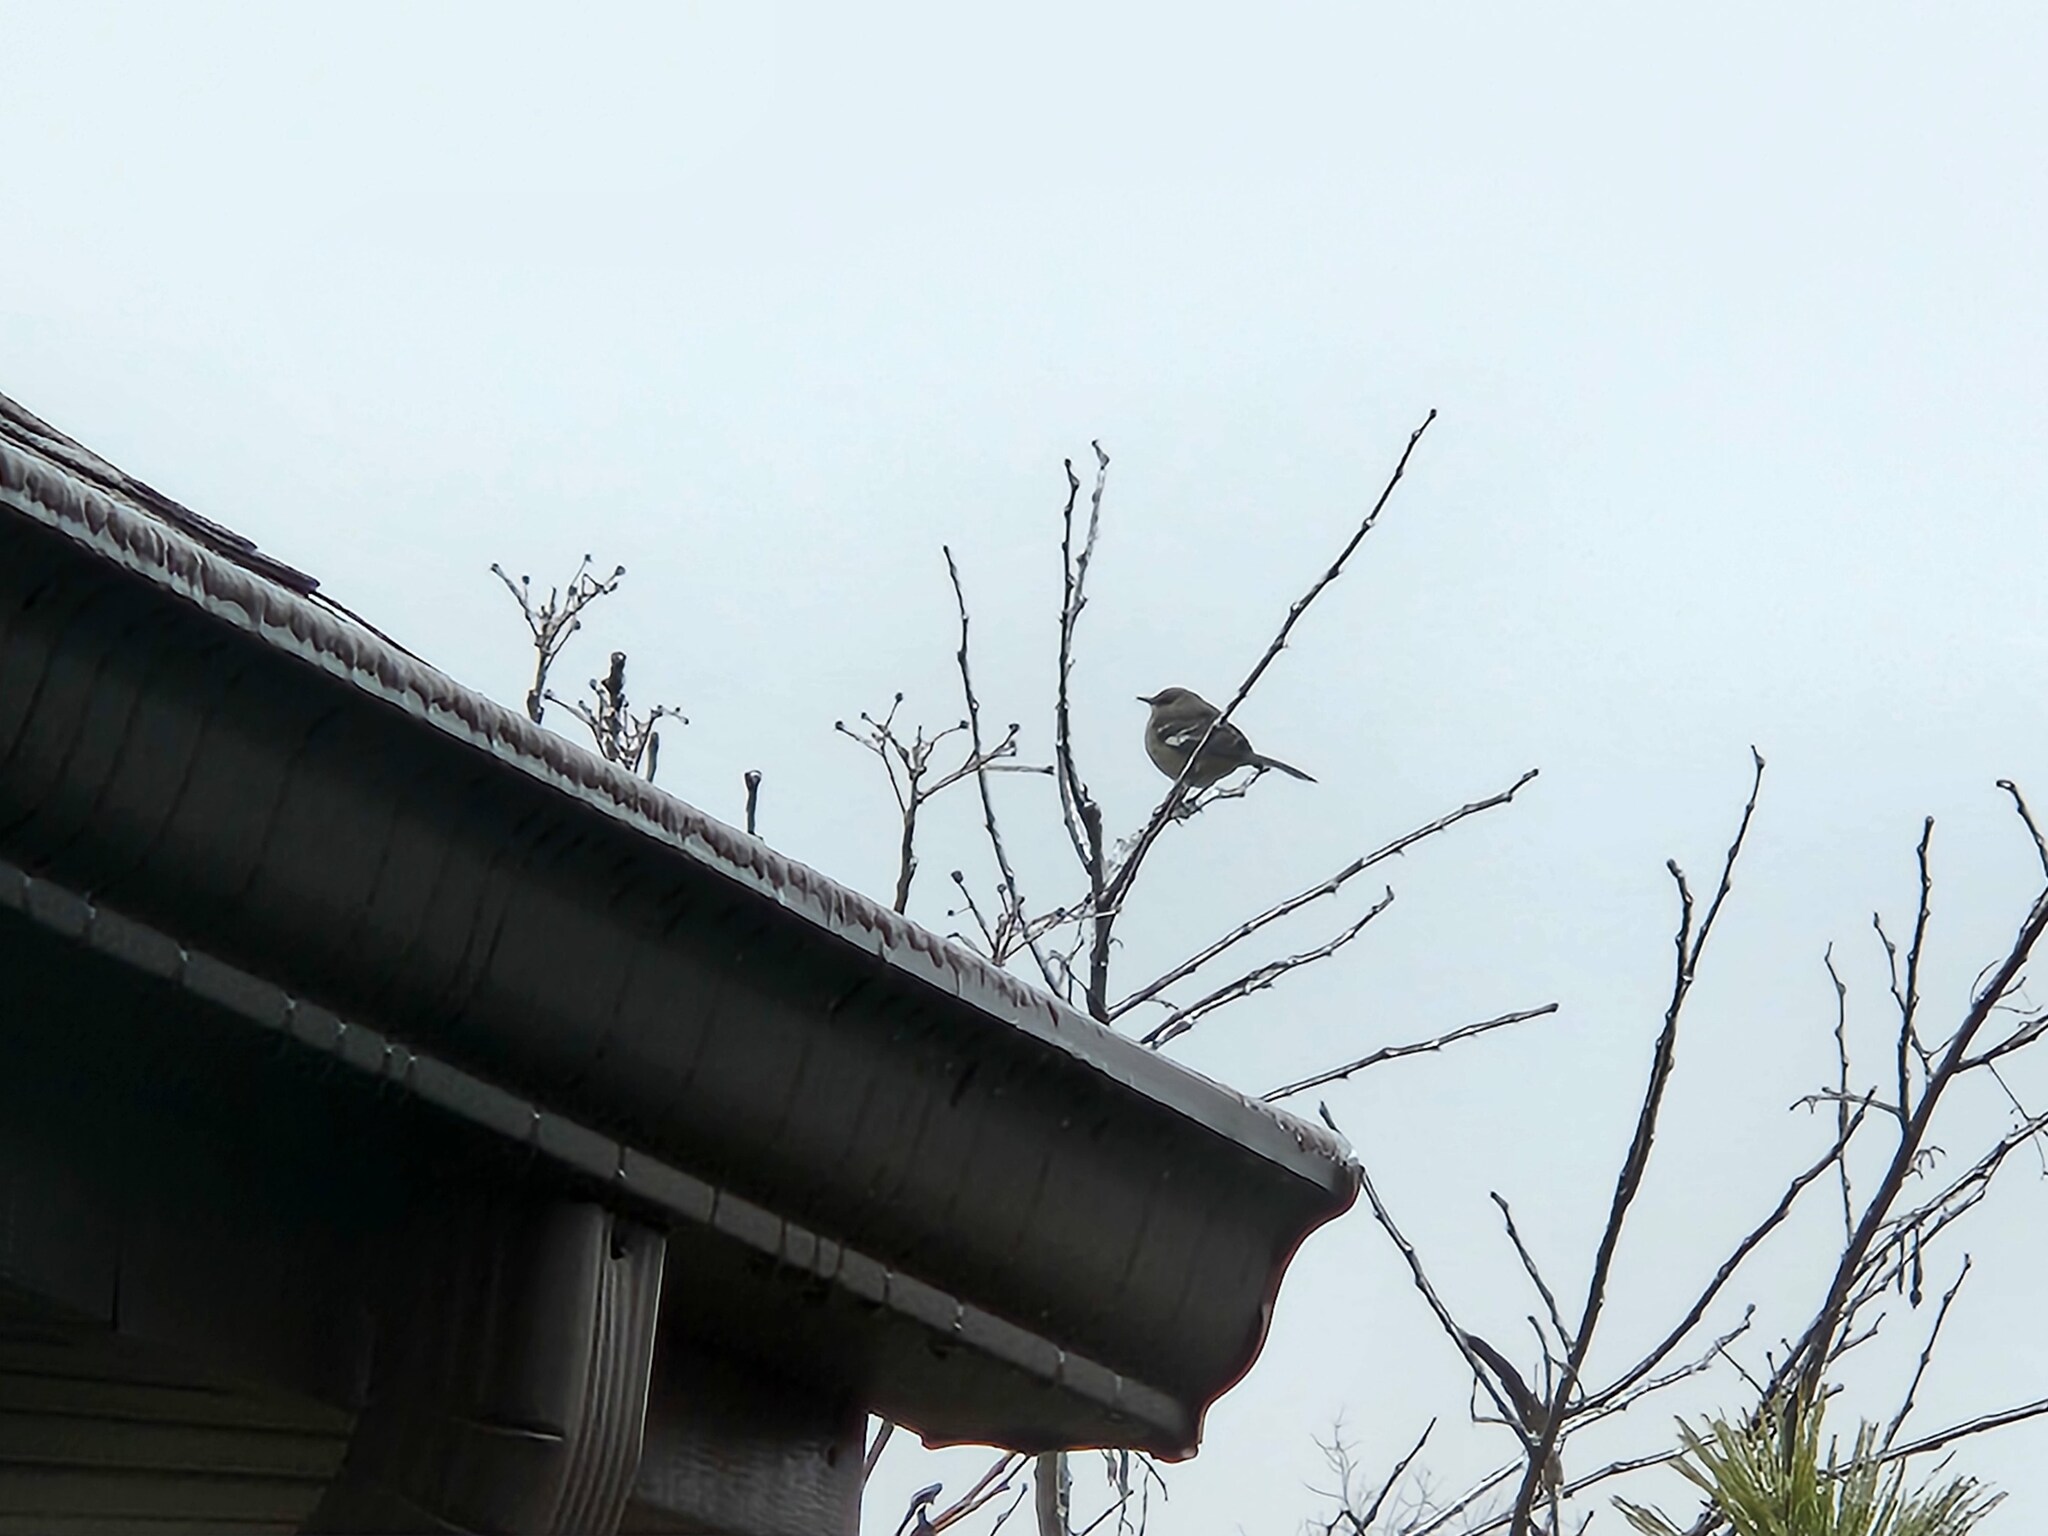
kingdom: Animalia
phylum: Chordata
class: Aves
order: Passeriformes
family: Mimidae
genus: Mimus
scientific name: Mimus polyglottos
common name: Northern mockingbird
